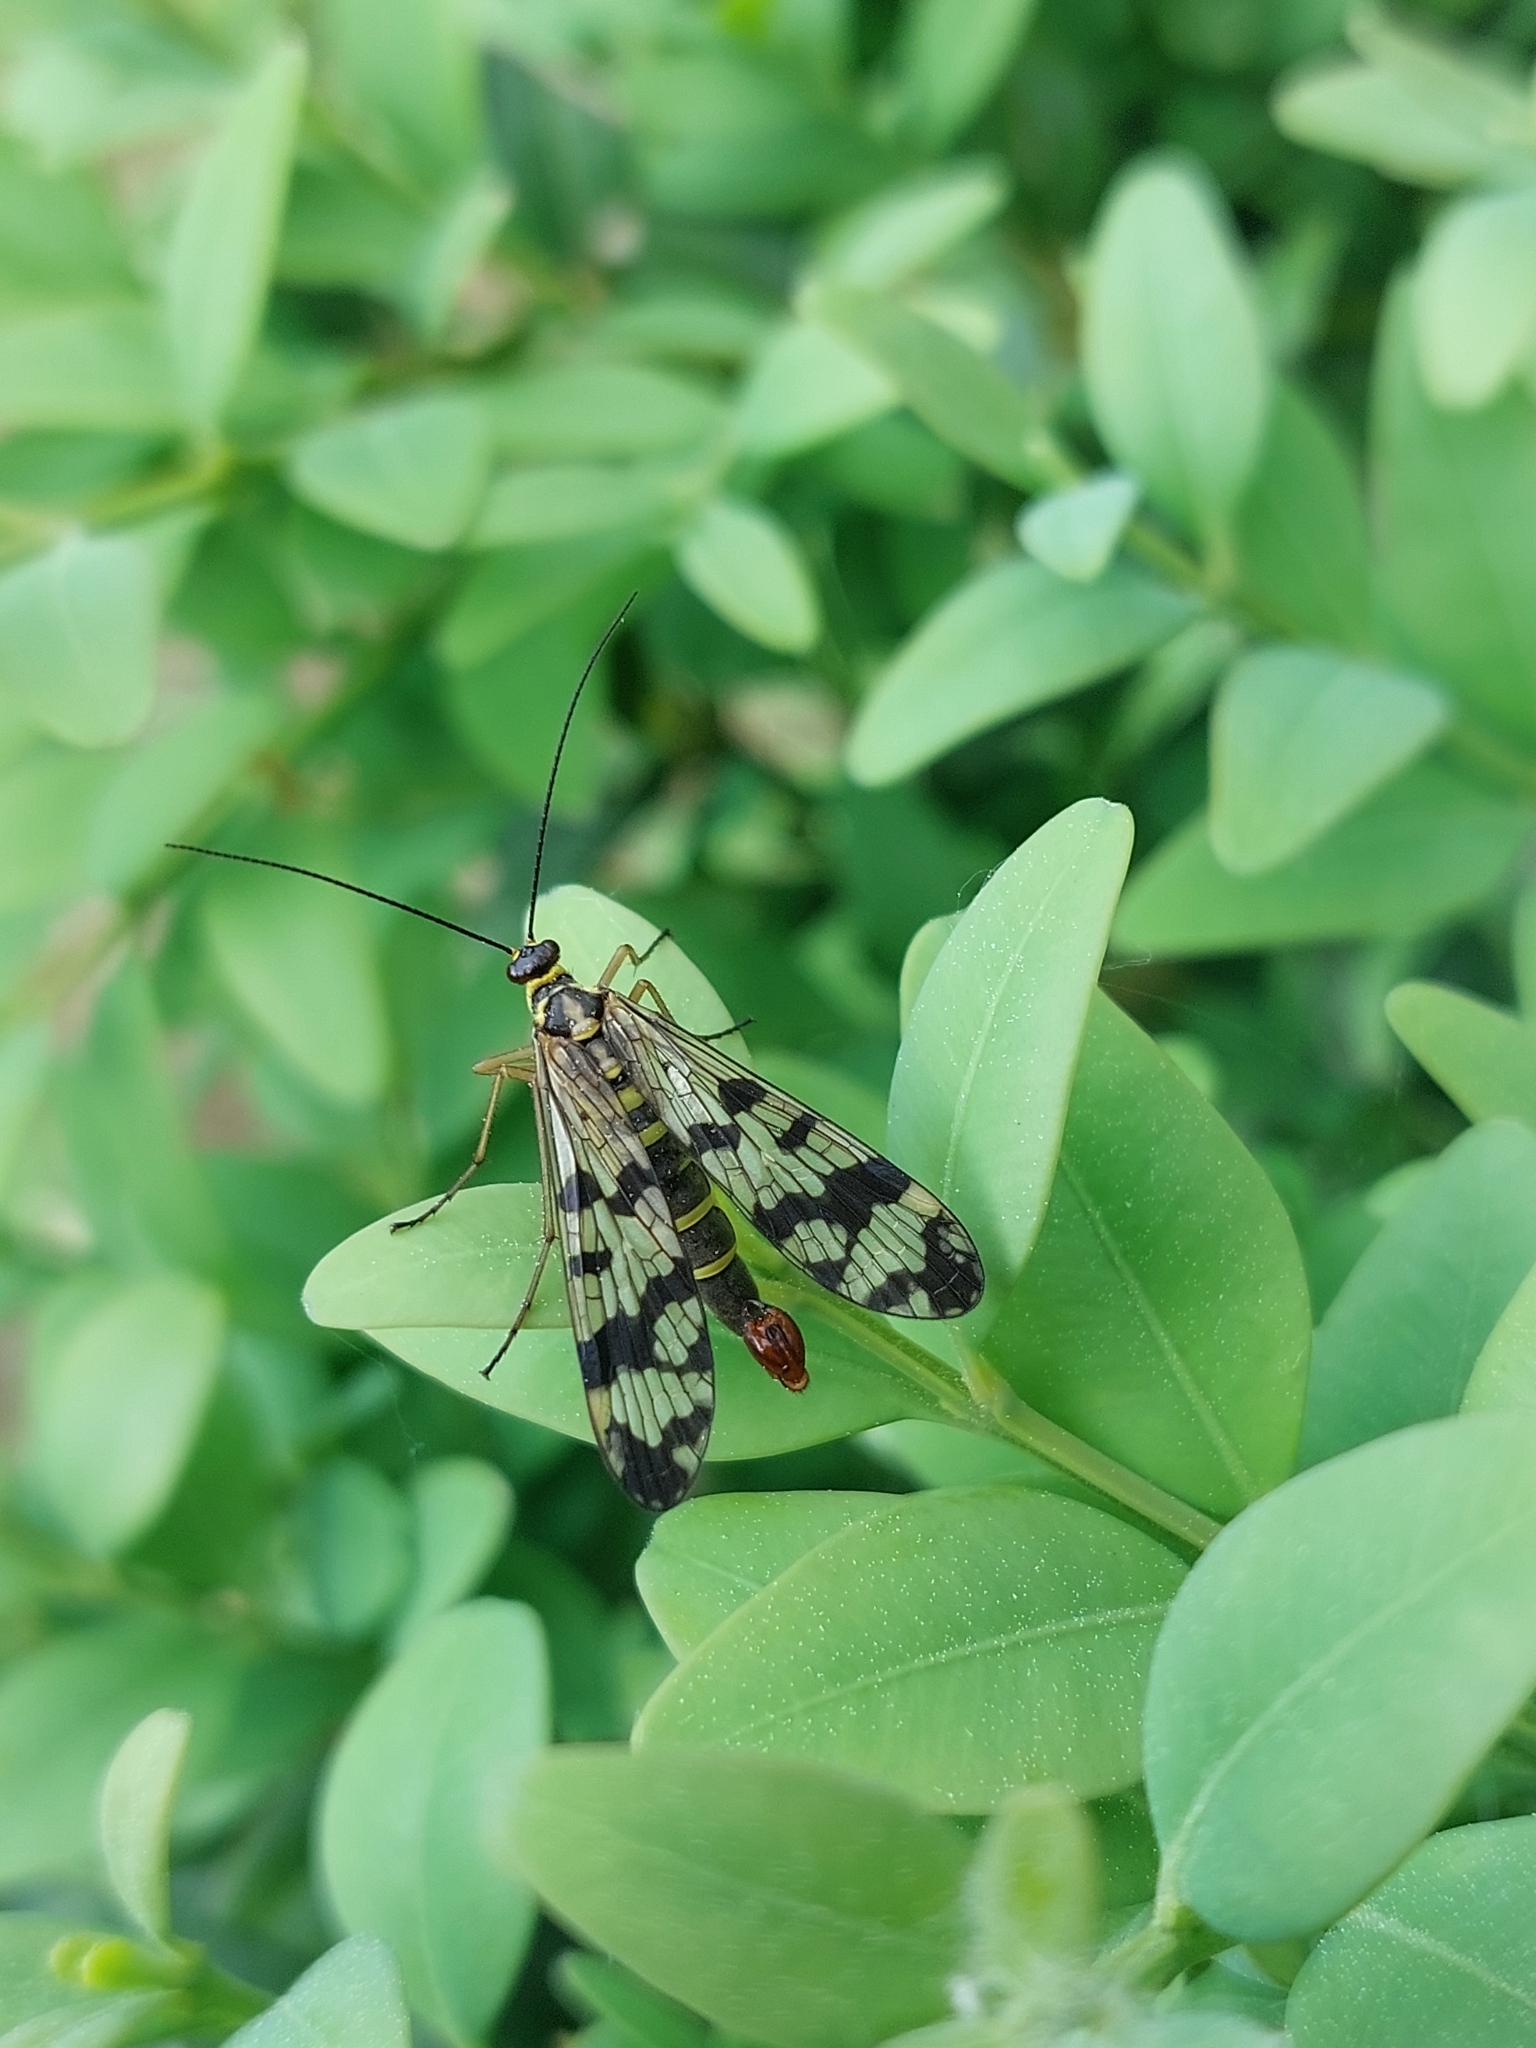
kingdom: Animalia
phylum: Arthropoda
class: Insecta
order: Mecoptera
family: Panorpidae
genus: Panorpa
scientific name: Panorpa communis
